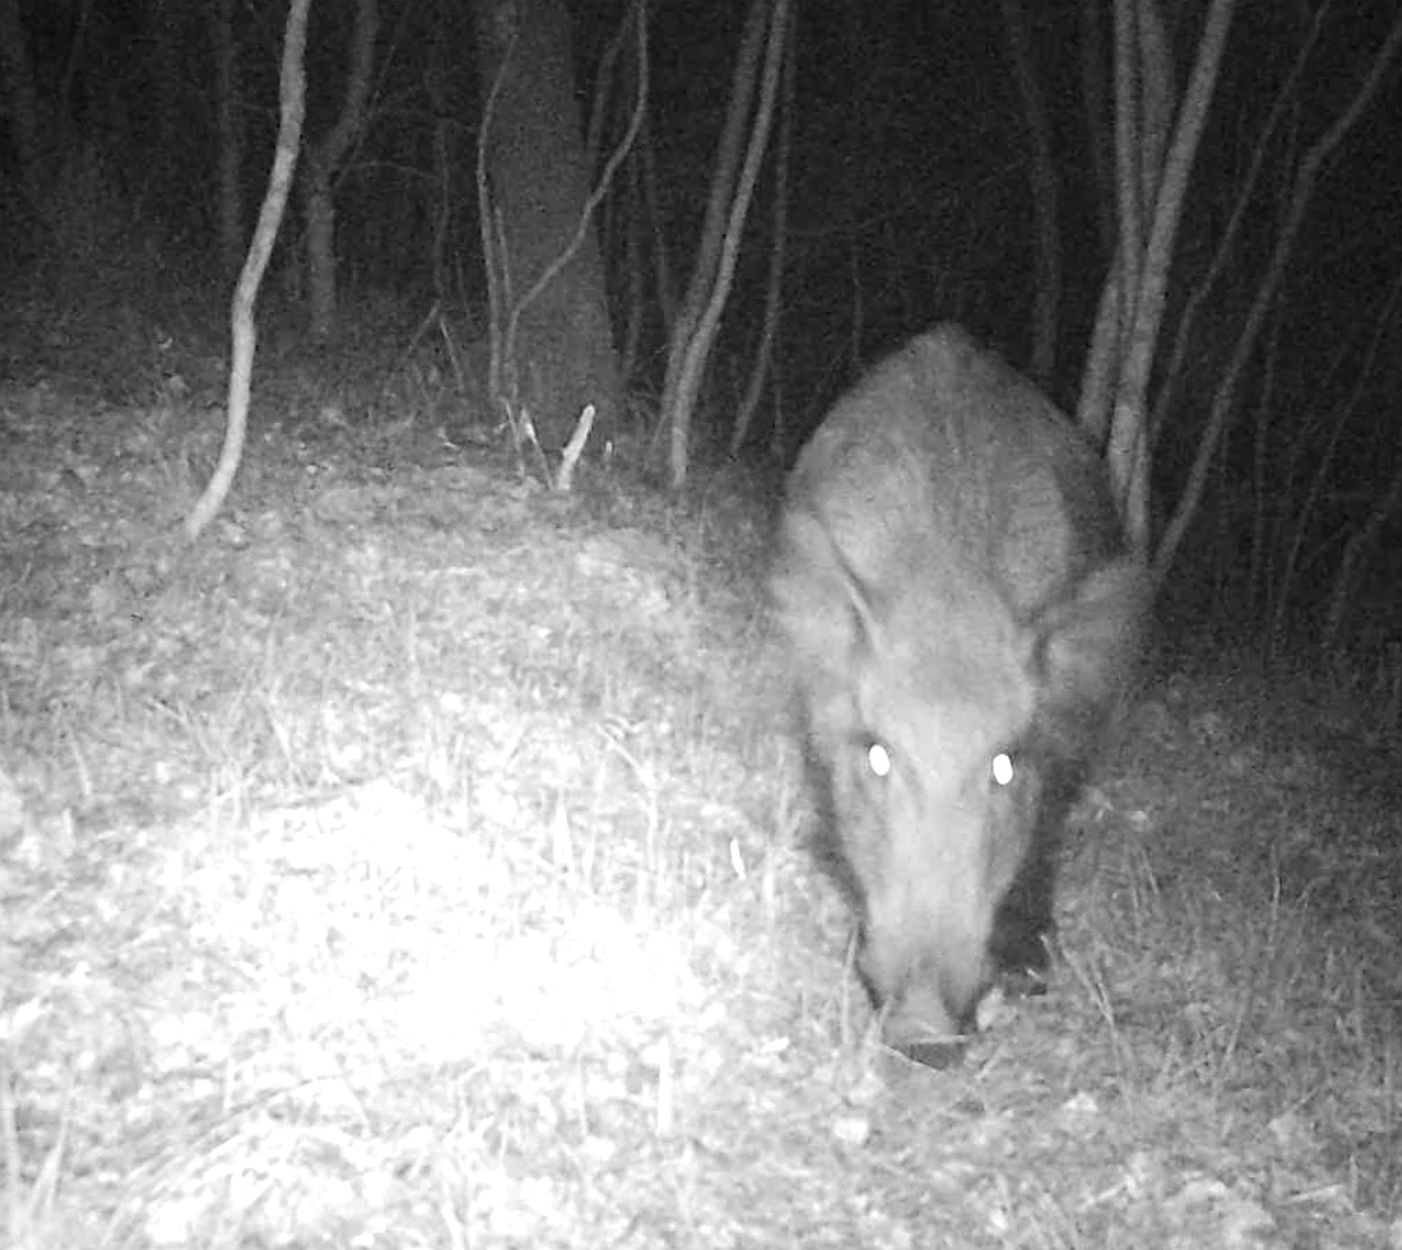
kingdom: Animalia
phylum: Chordata
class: Mammalia
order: Artiodactyla
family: Suidae
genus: Sus
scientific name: Sus scrofa
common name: Wild boar
